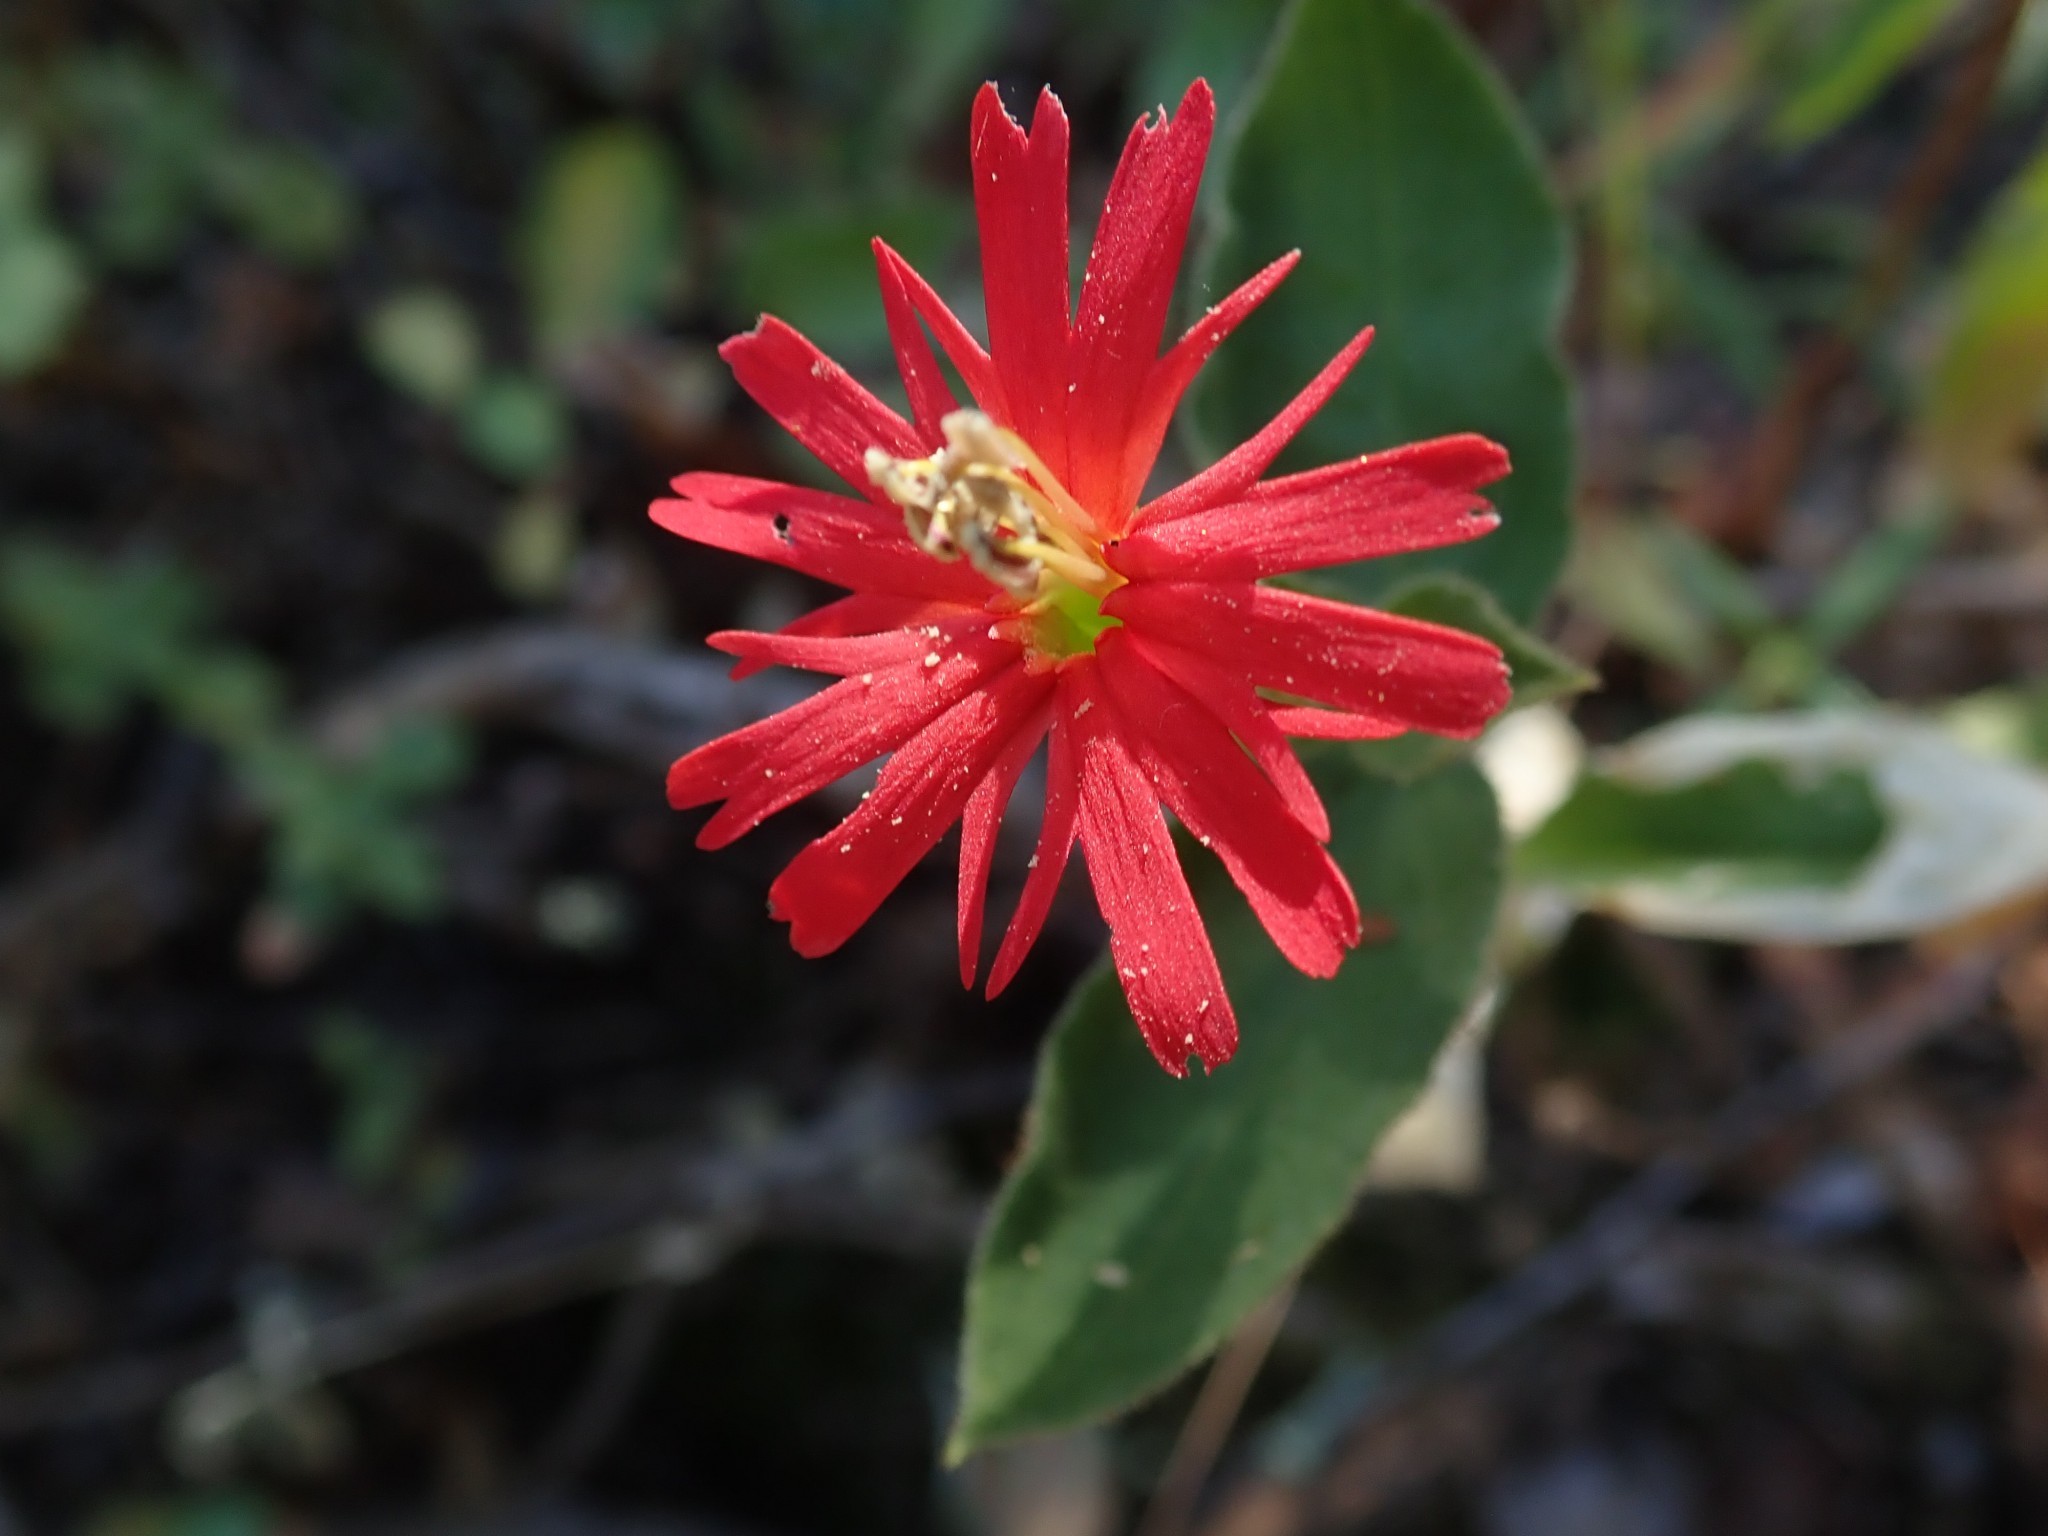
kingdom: Plantae
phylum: Tracheophyta
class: Magnoliopsida
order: Caryophyllales
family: Caryophyllaceae
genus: Silene
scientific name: Silene laciniata
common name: Indian-pink
